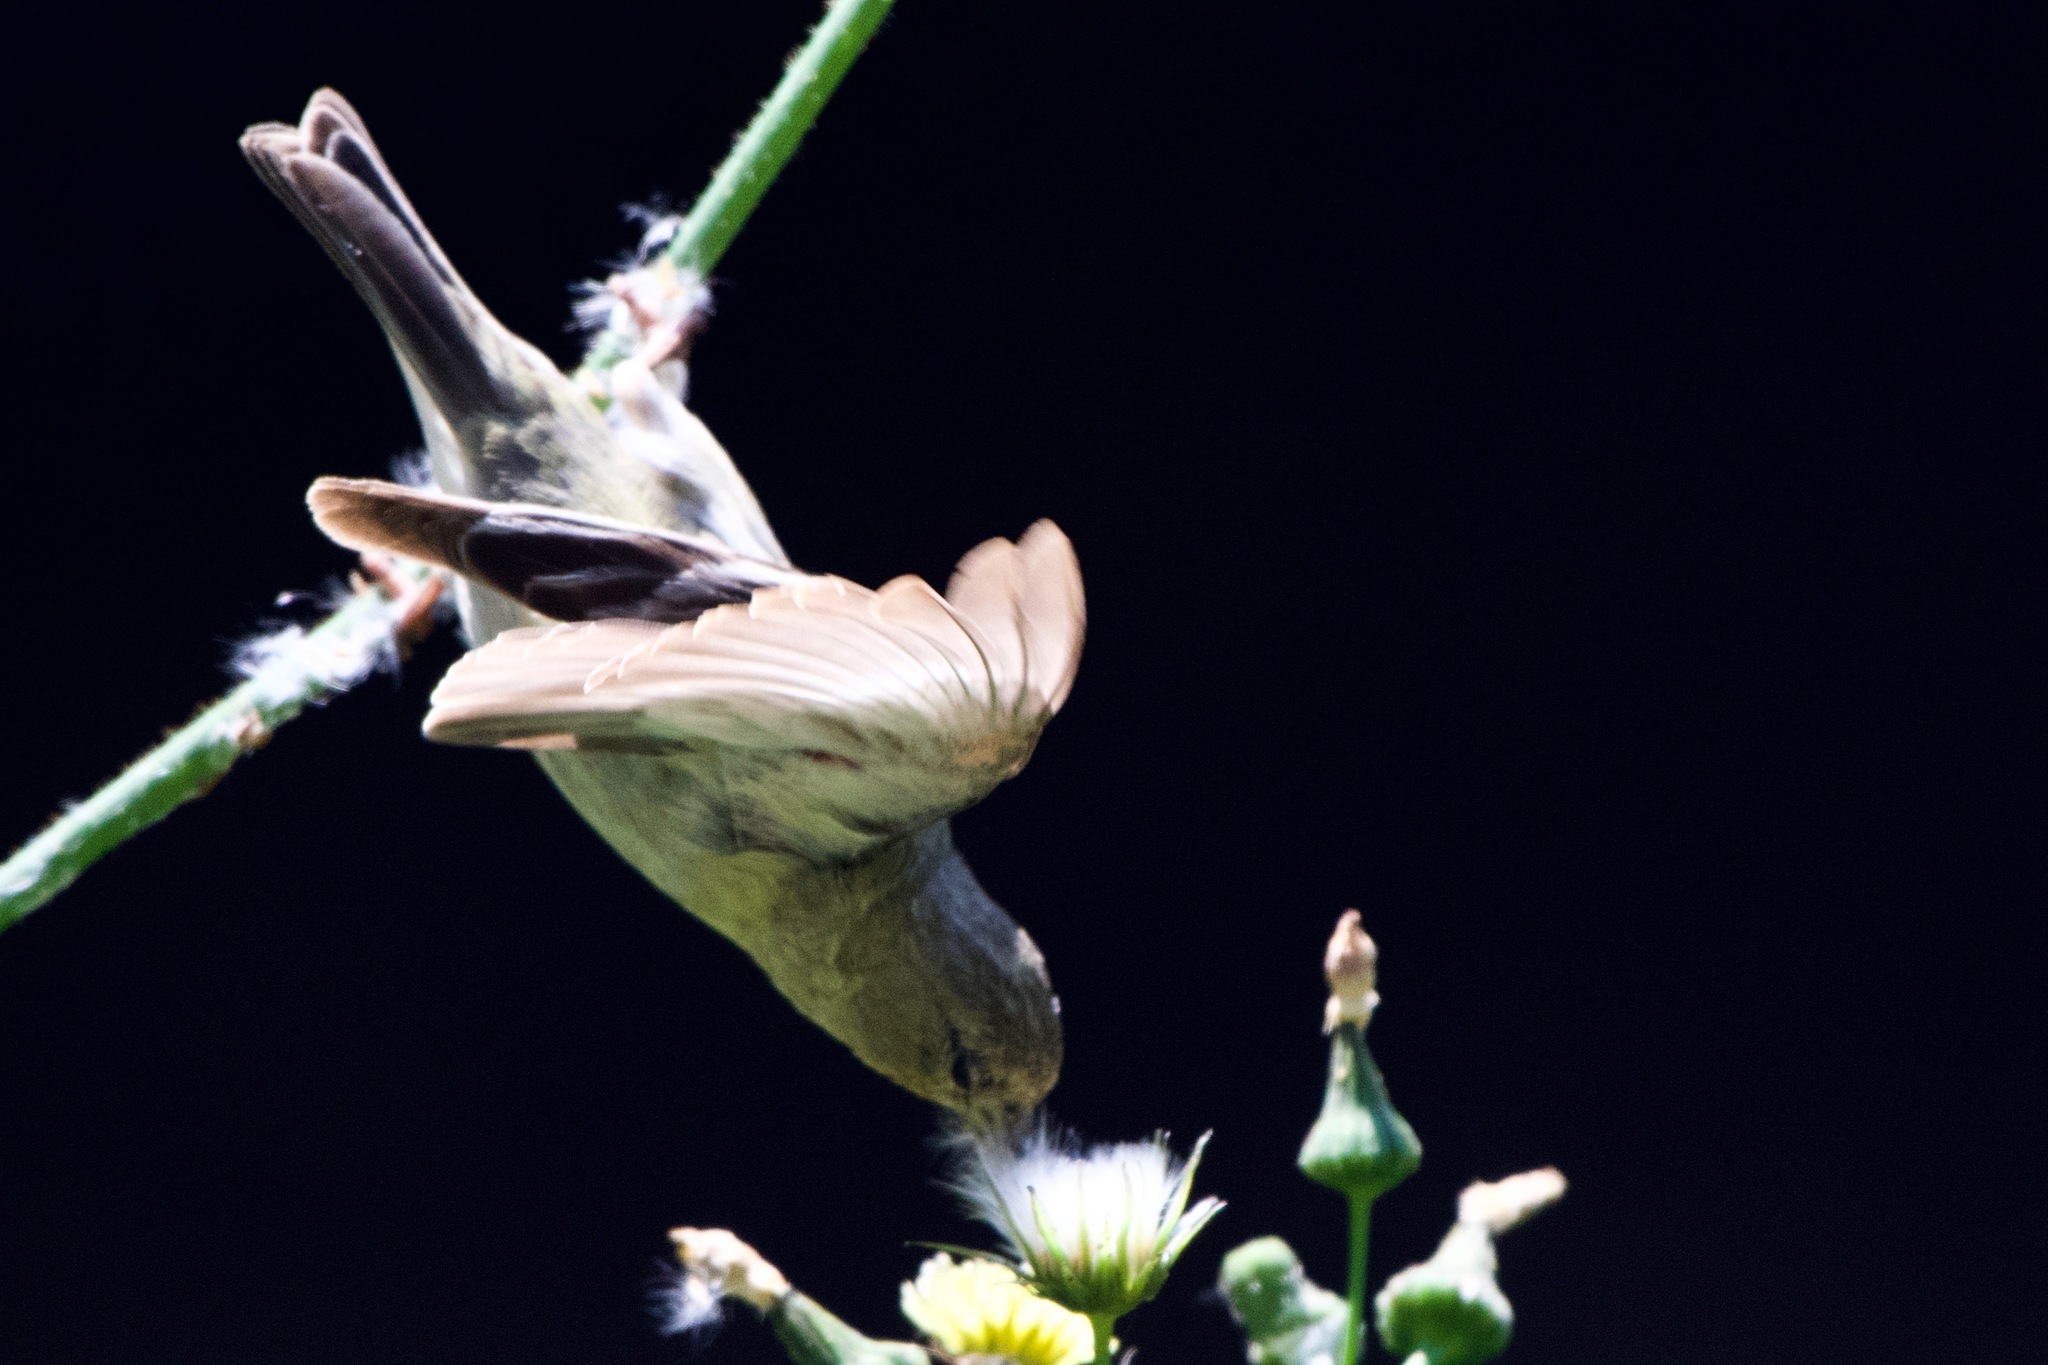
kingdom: Animalia
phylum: Chordata
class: Aves
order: Passeriformes
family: Fringillidae
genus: Spinus
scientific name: Spinus psaltria
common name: Lesser goldfinch
